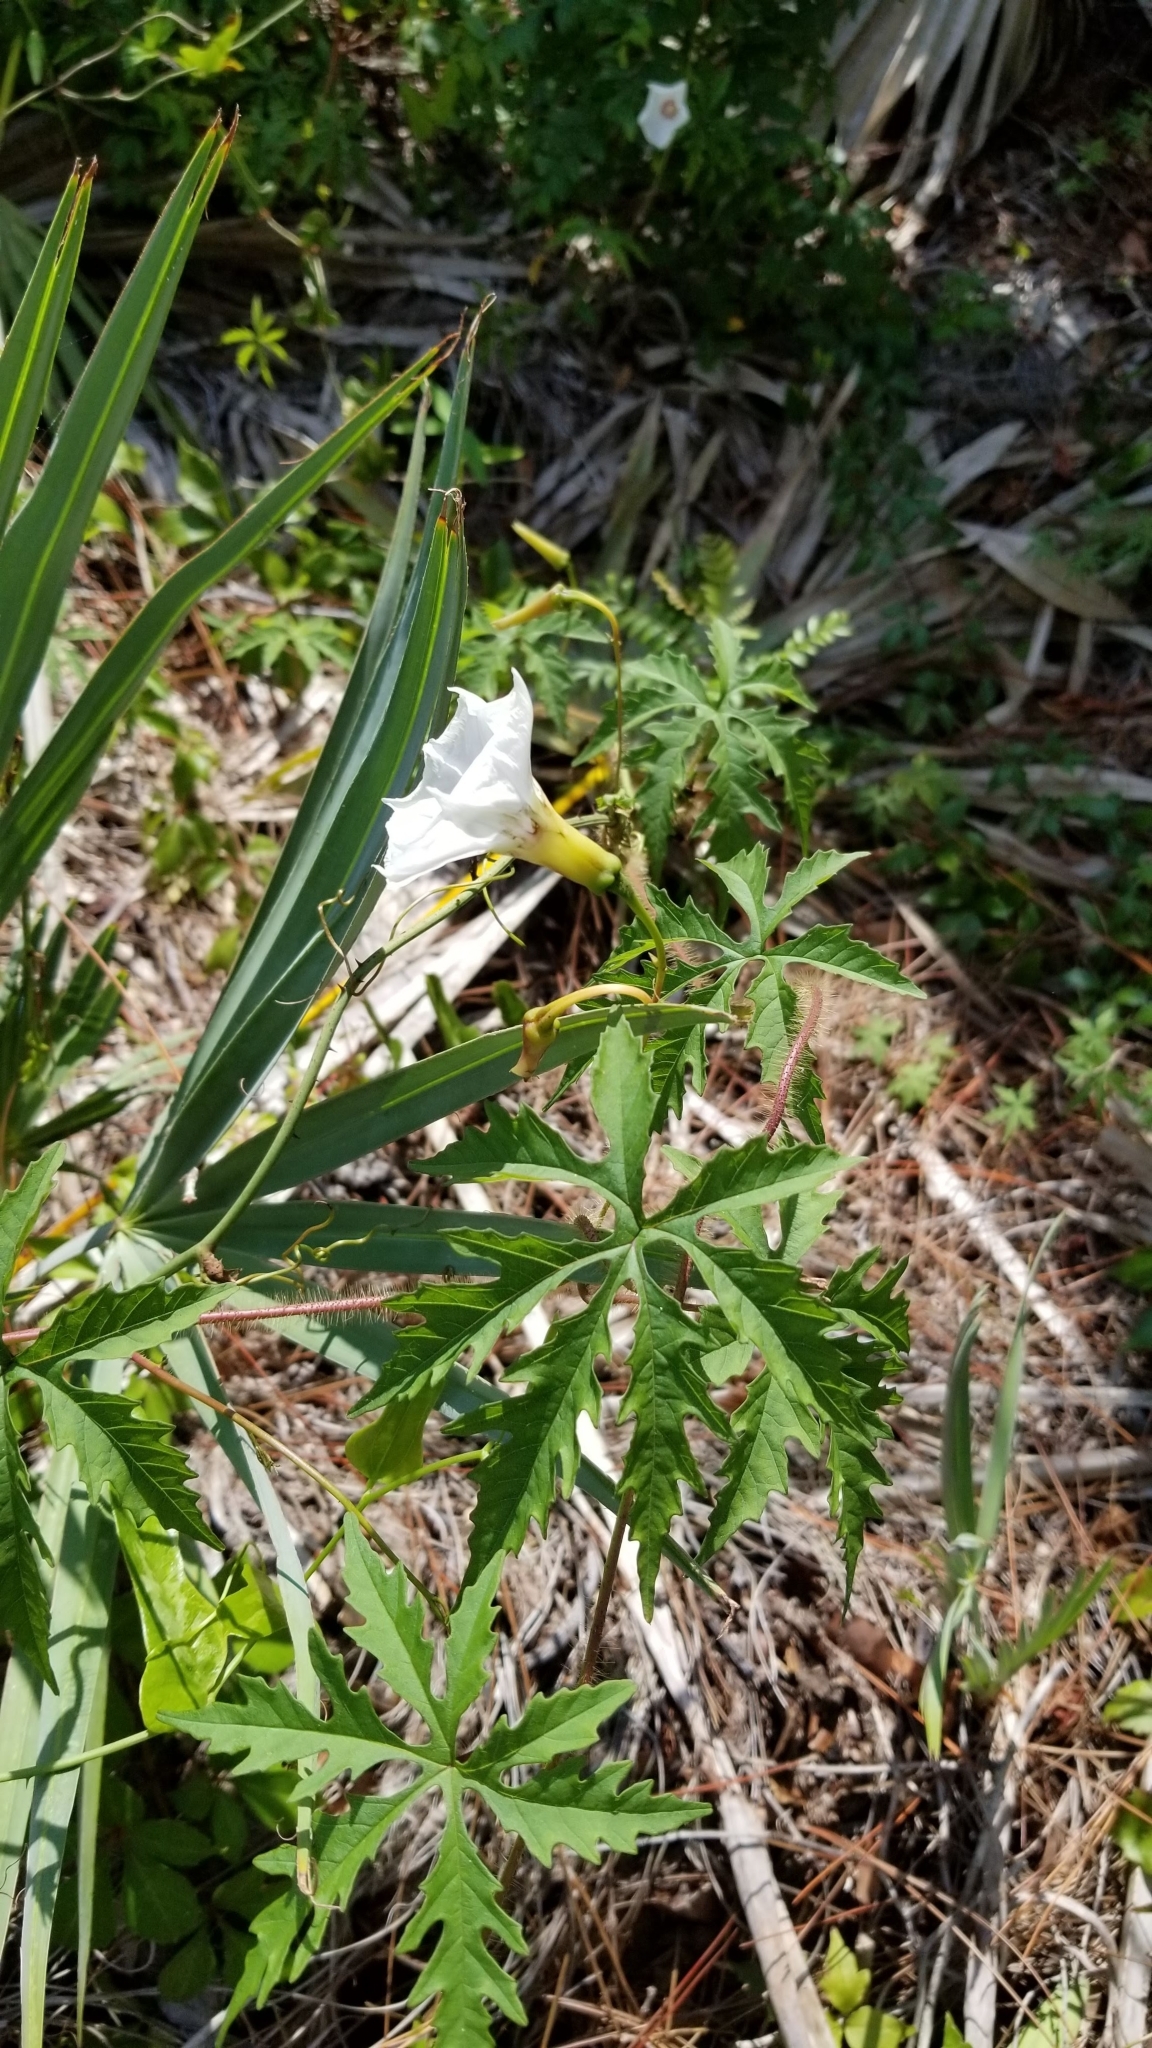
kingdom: Plantae
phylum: Tracheophyta
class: Magnoliopsida
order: Solanales
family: Convolvulaceae
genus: Distimake
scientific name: Distimake dissectus
